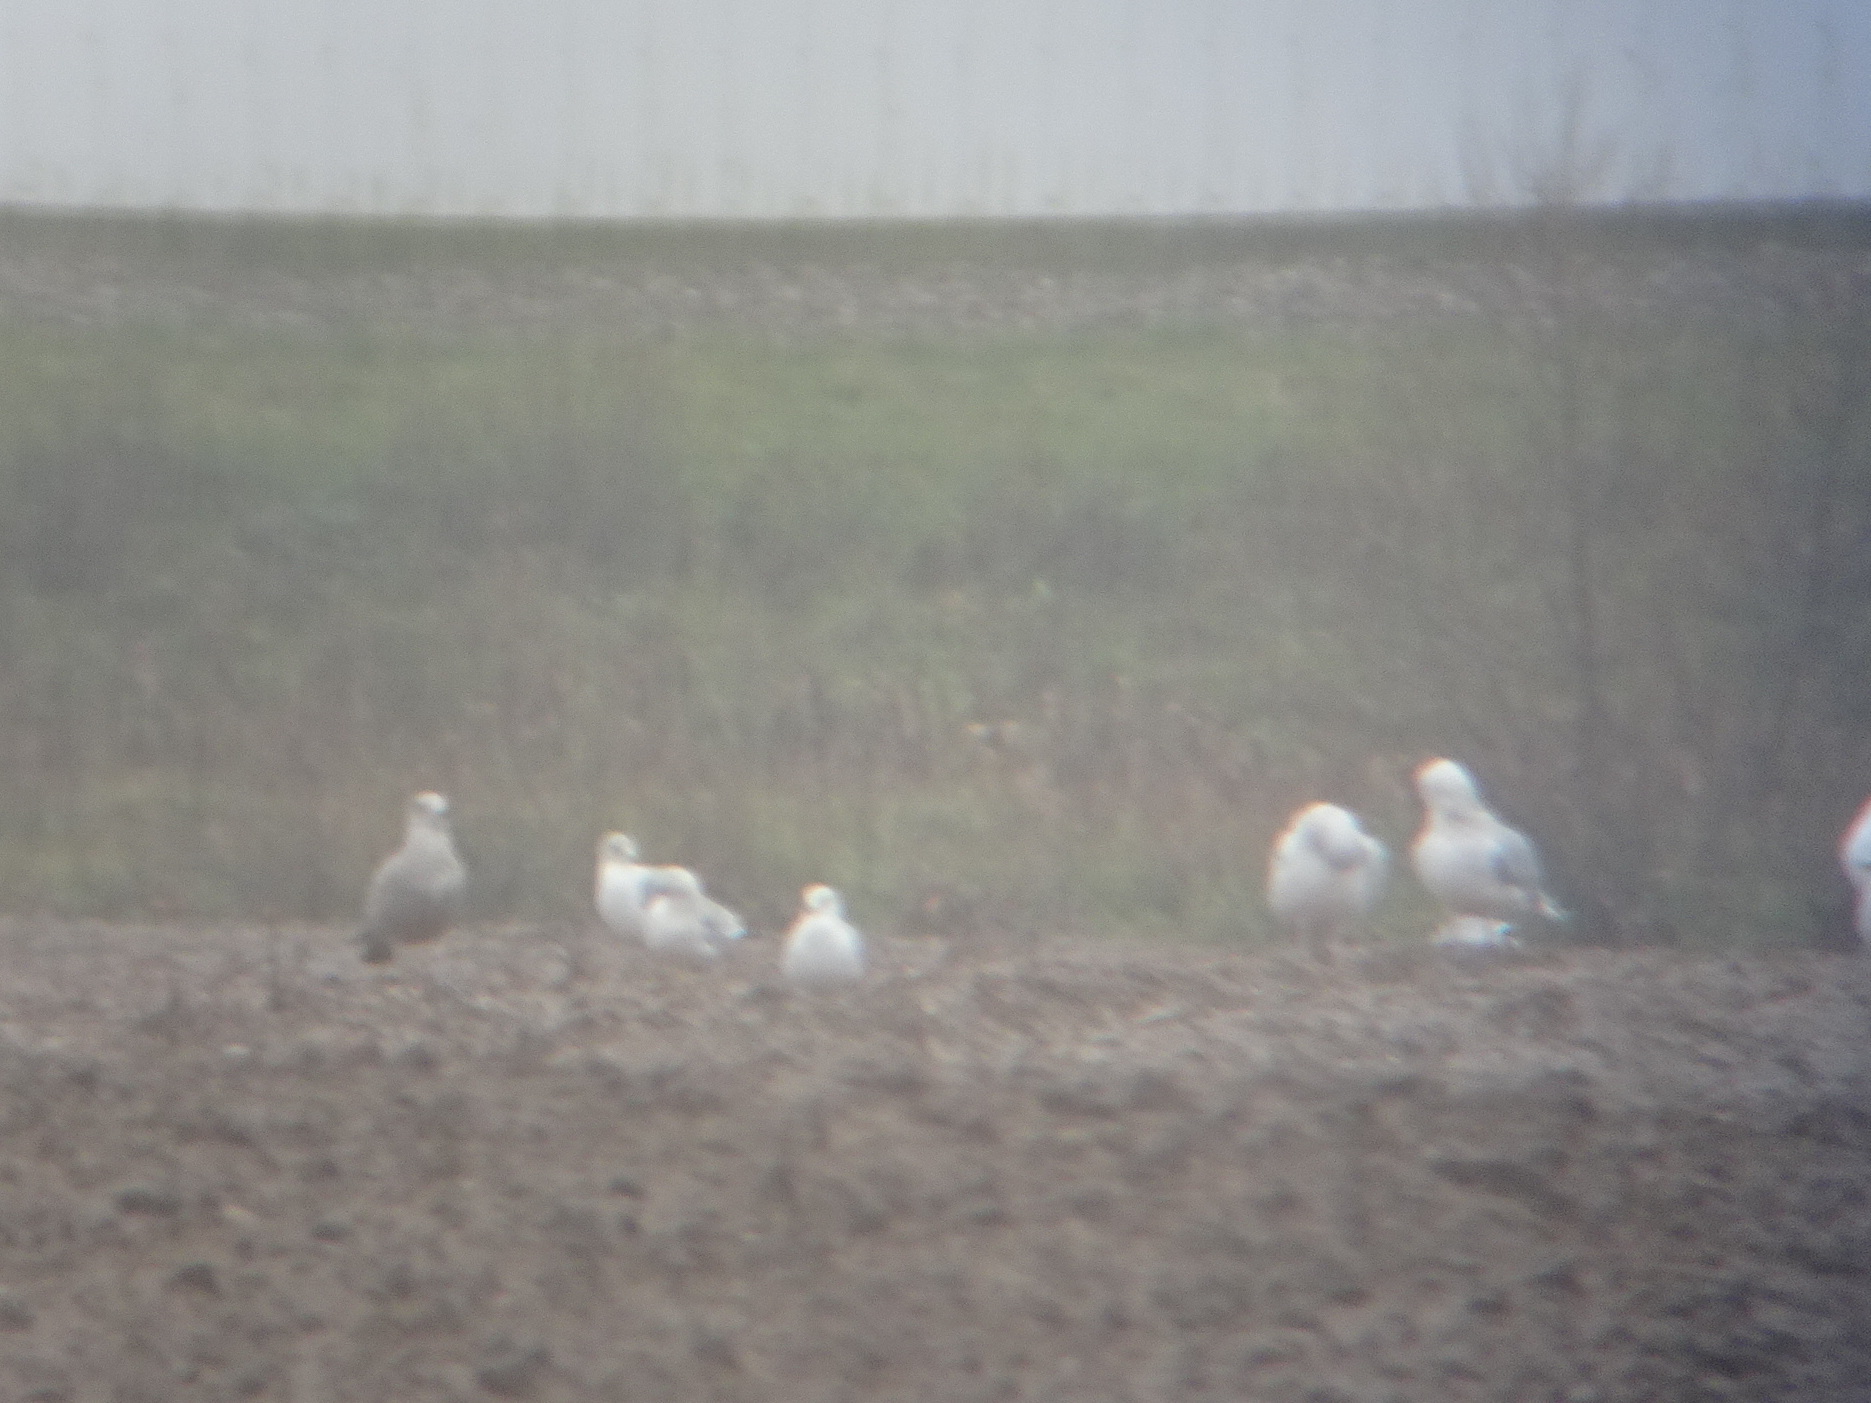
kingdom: Animalia
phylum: Chordata
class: Aves
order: Charadriiformes
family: Laridae
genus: Larus
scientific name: Larus argentatus
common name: Herring gull
